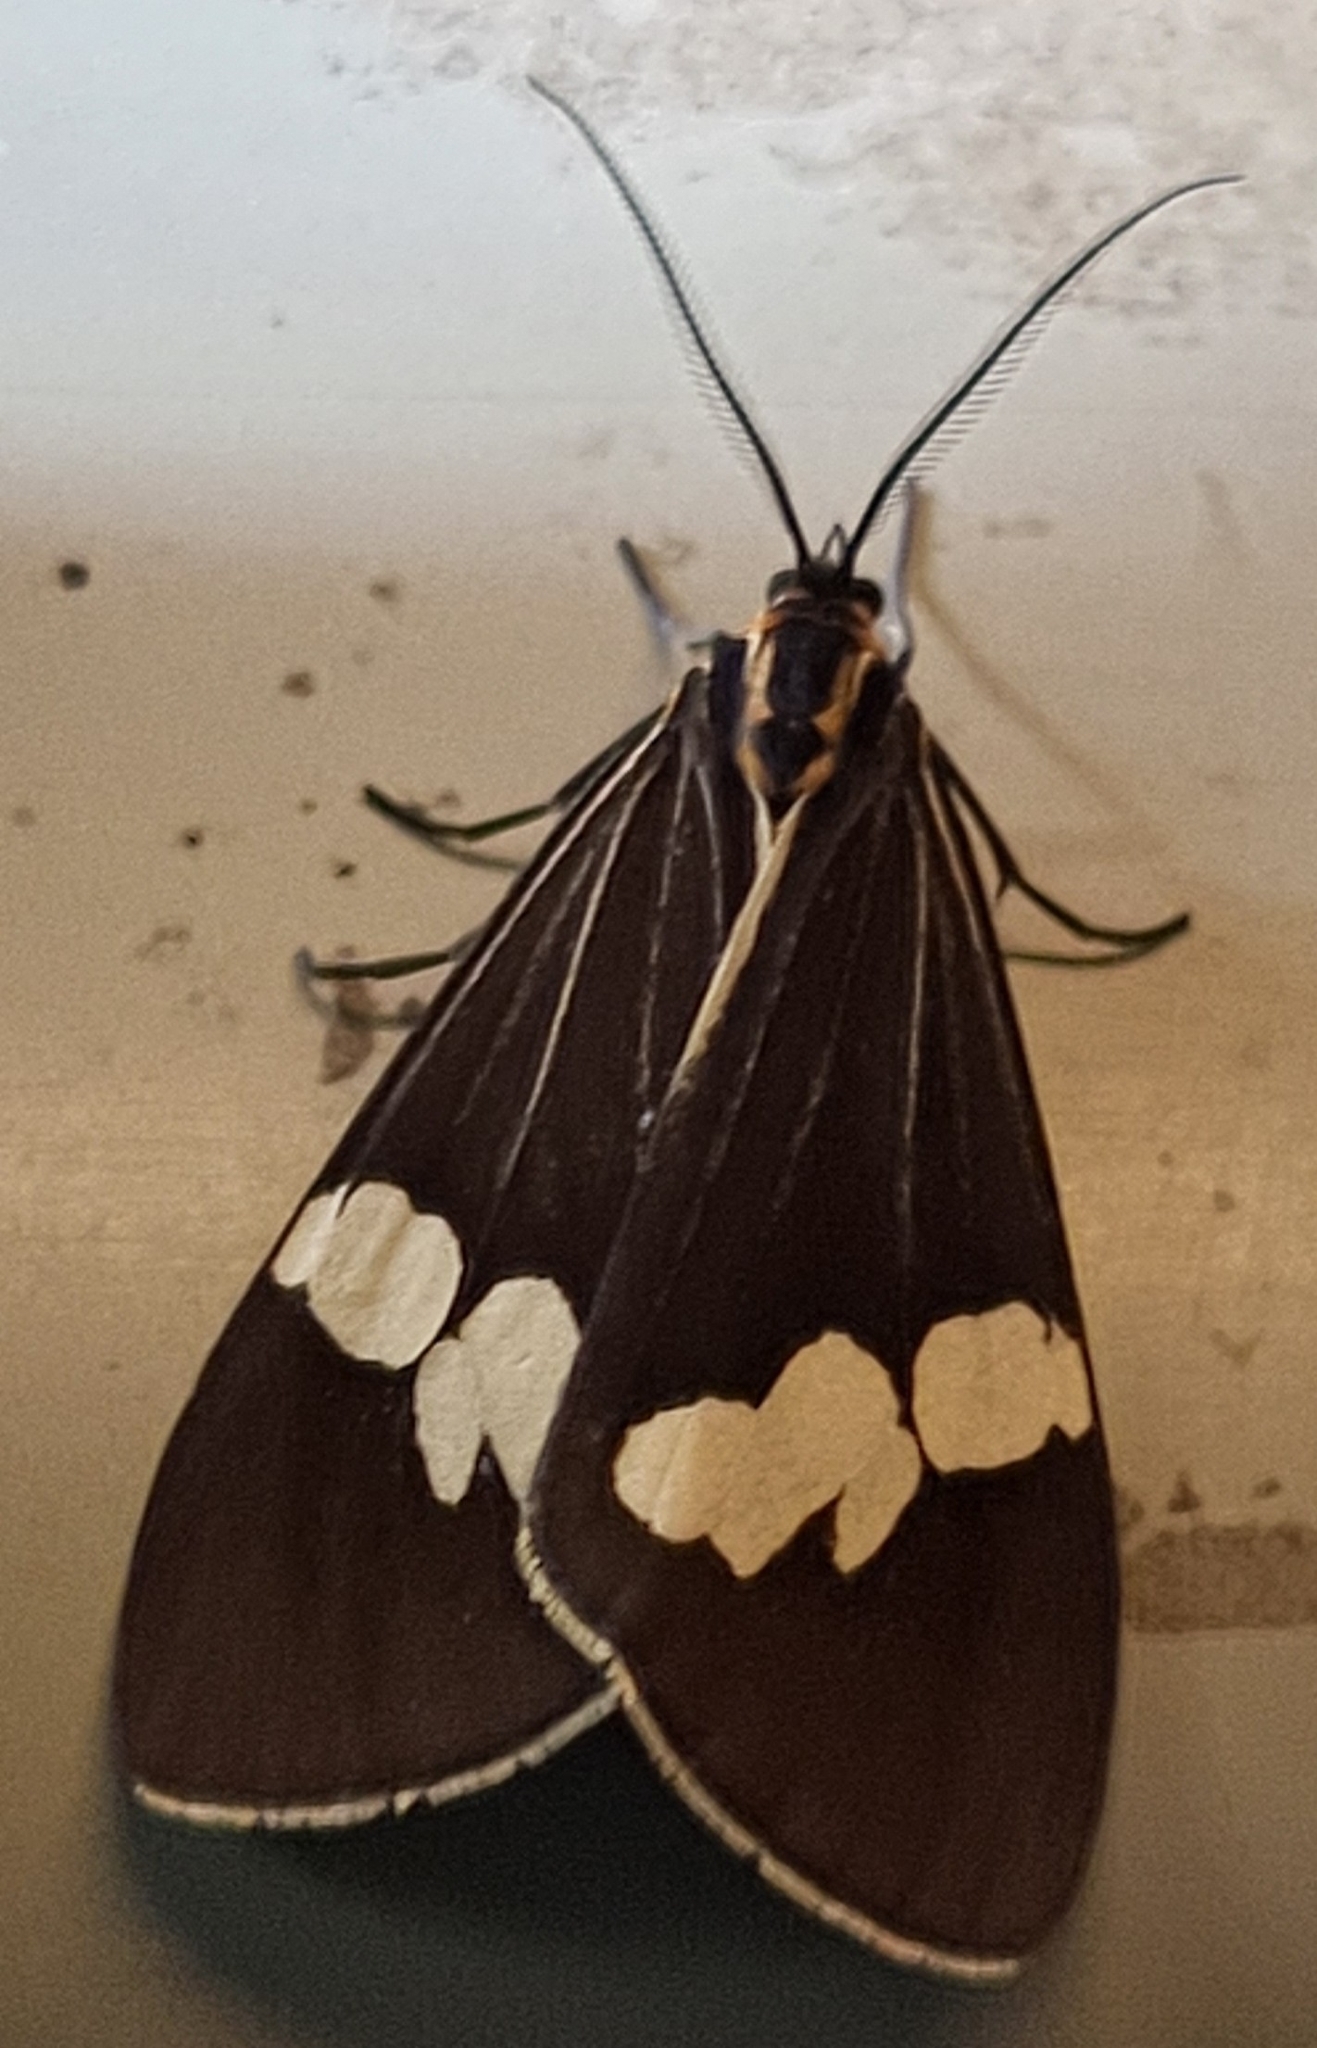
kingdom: Animalia
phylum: Arthropoda
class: Insecta
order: Lepidoptera
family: Erebidae
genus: Nyctemera
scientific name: Nyctemera amicus
